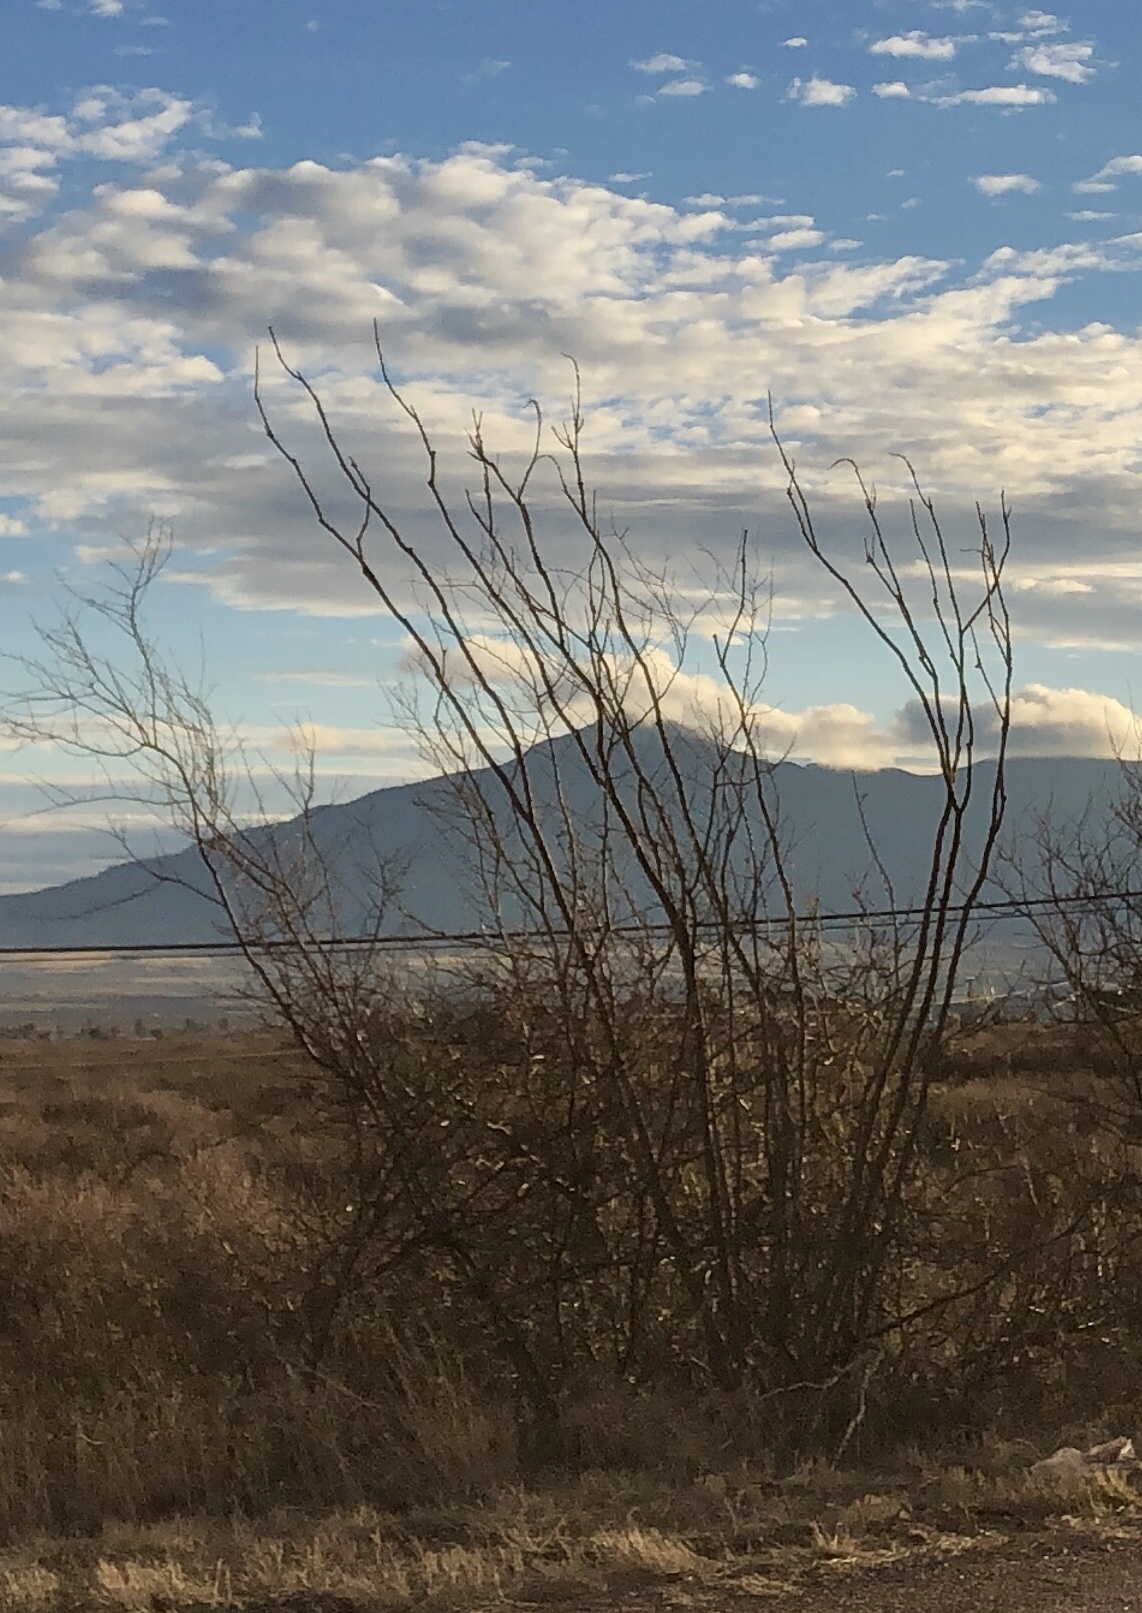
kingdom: Plantae
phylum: Tracheophyta
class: Magnoliopsida
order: Ericales
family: Fouquieriaceae
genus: Fouquieria
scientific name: Fouquieria splendens
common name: Vine-cactus
